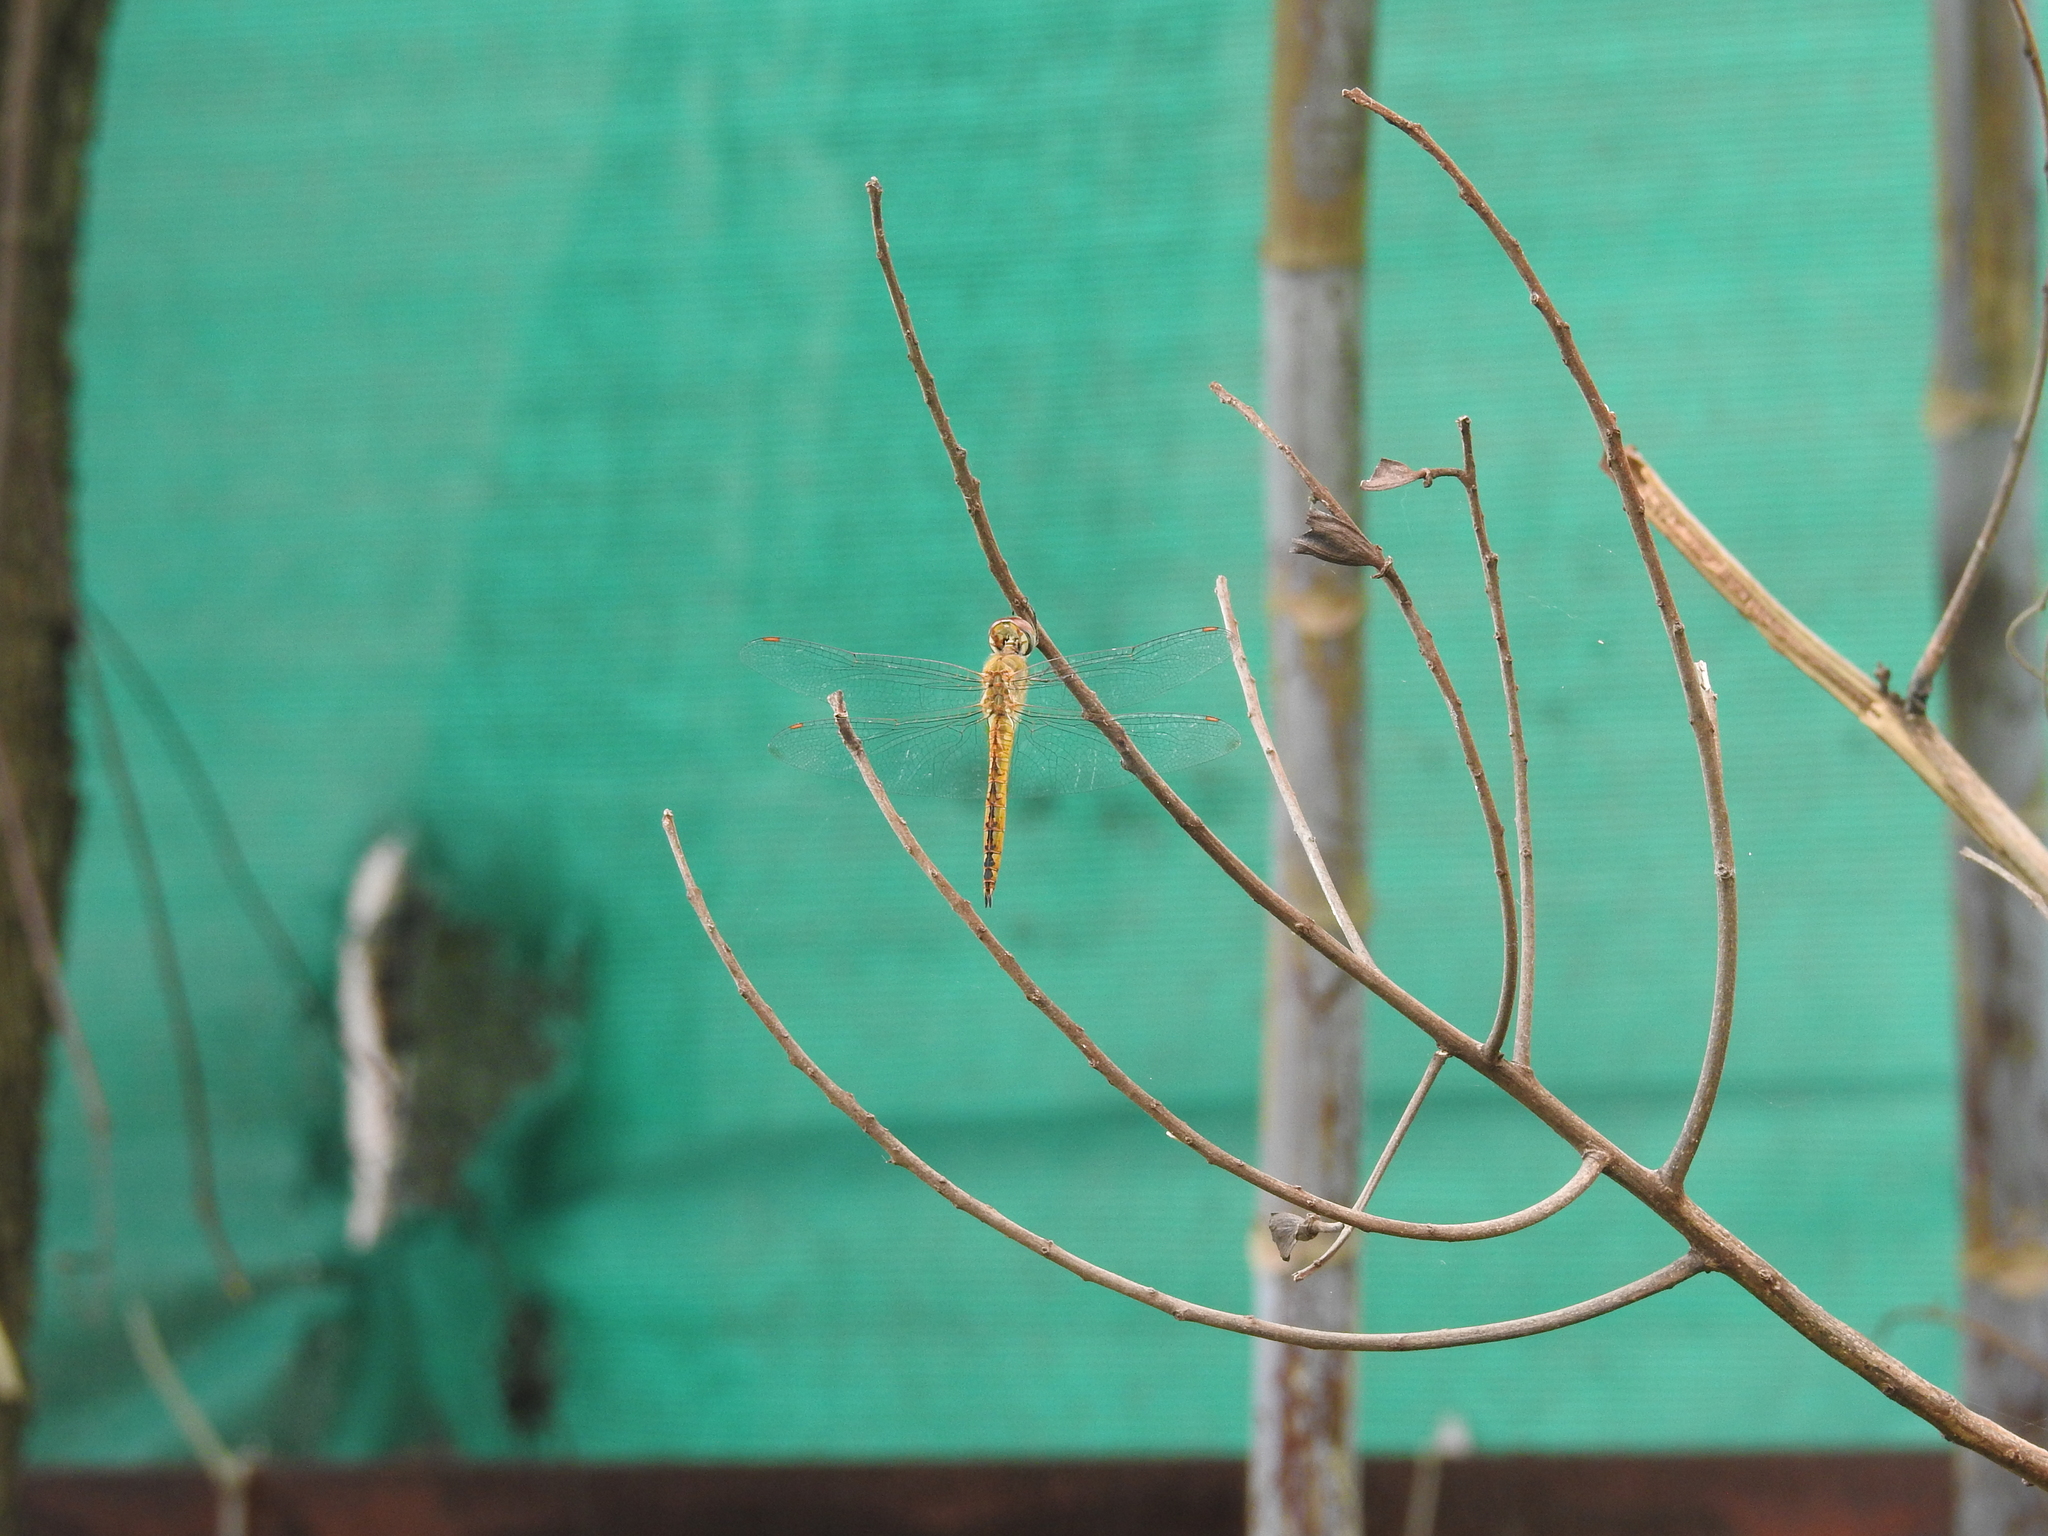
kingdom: Animalia
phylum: Arthropoda
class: Insecta
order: Odonata
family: Libellulidae
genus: Pantala
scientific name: Pantala flavescens
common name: Wandering glider
